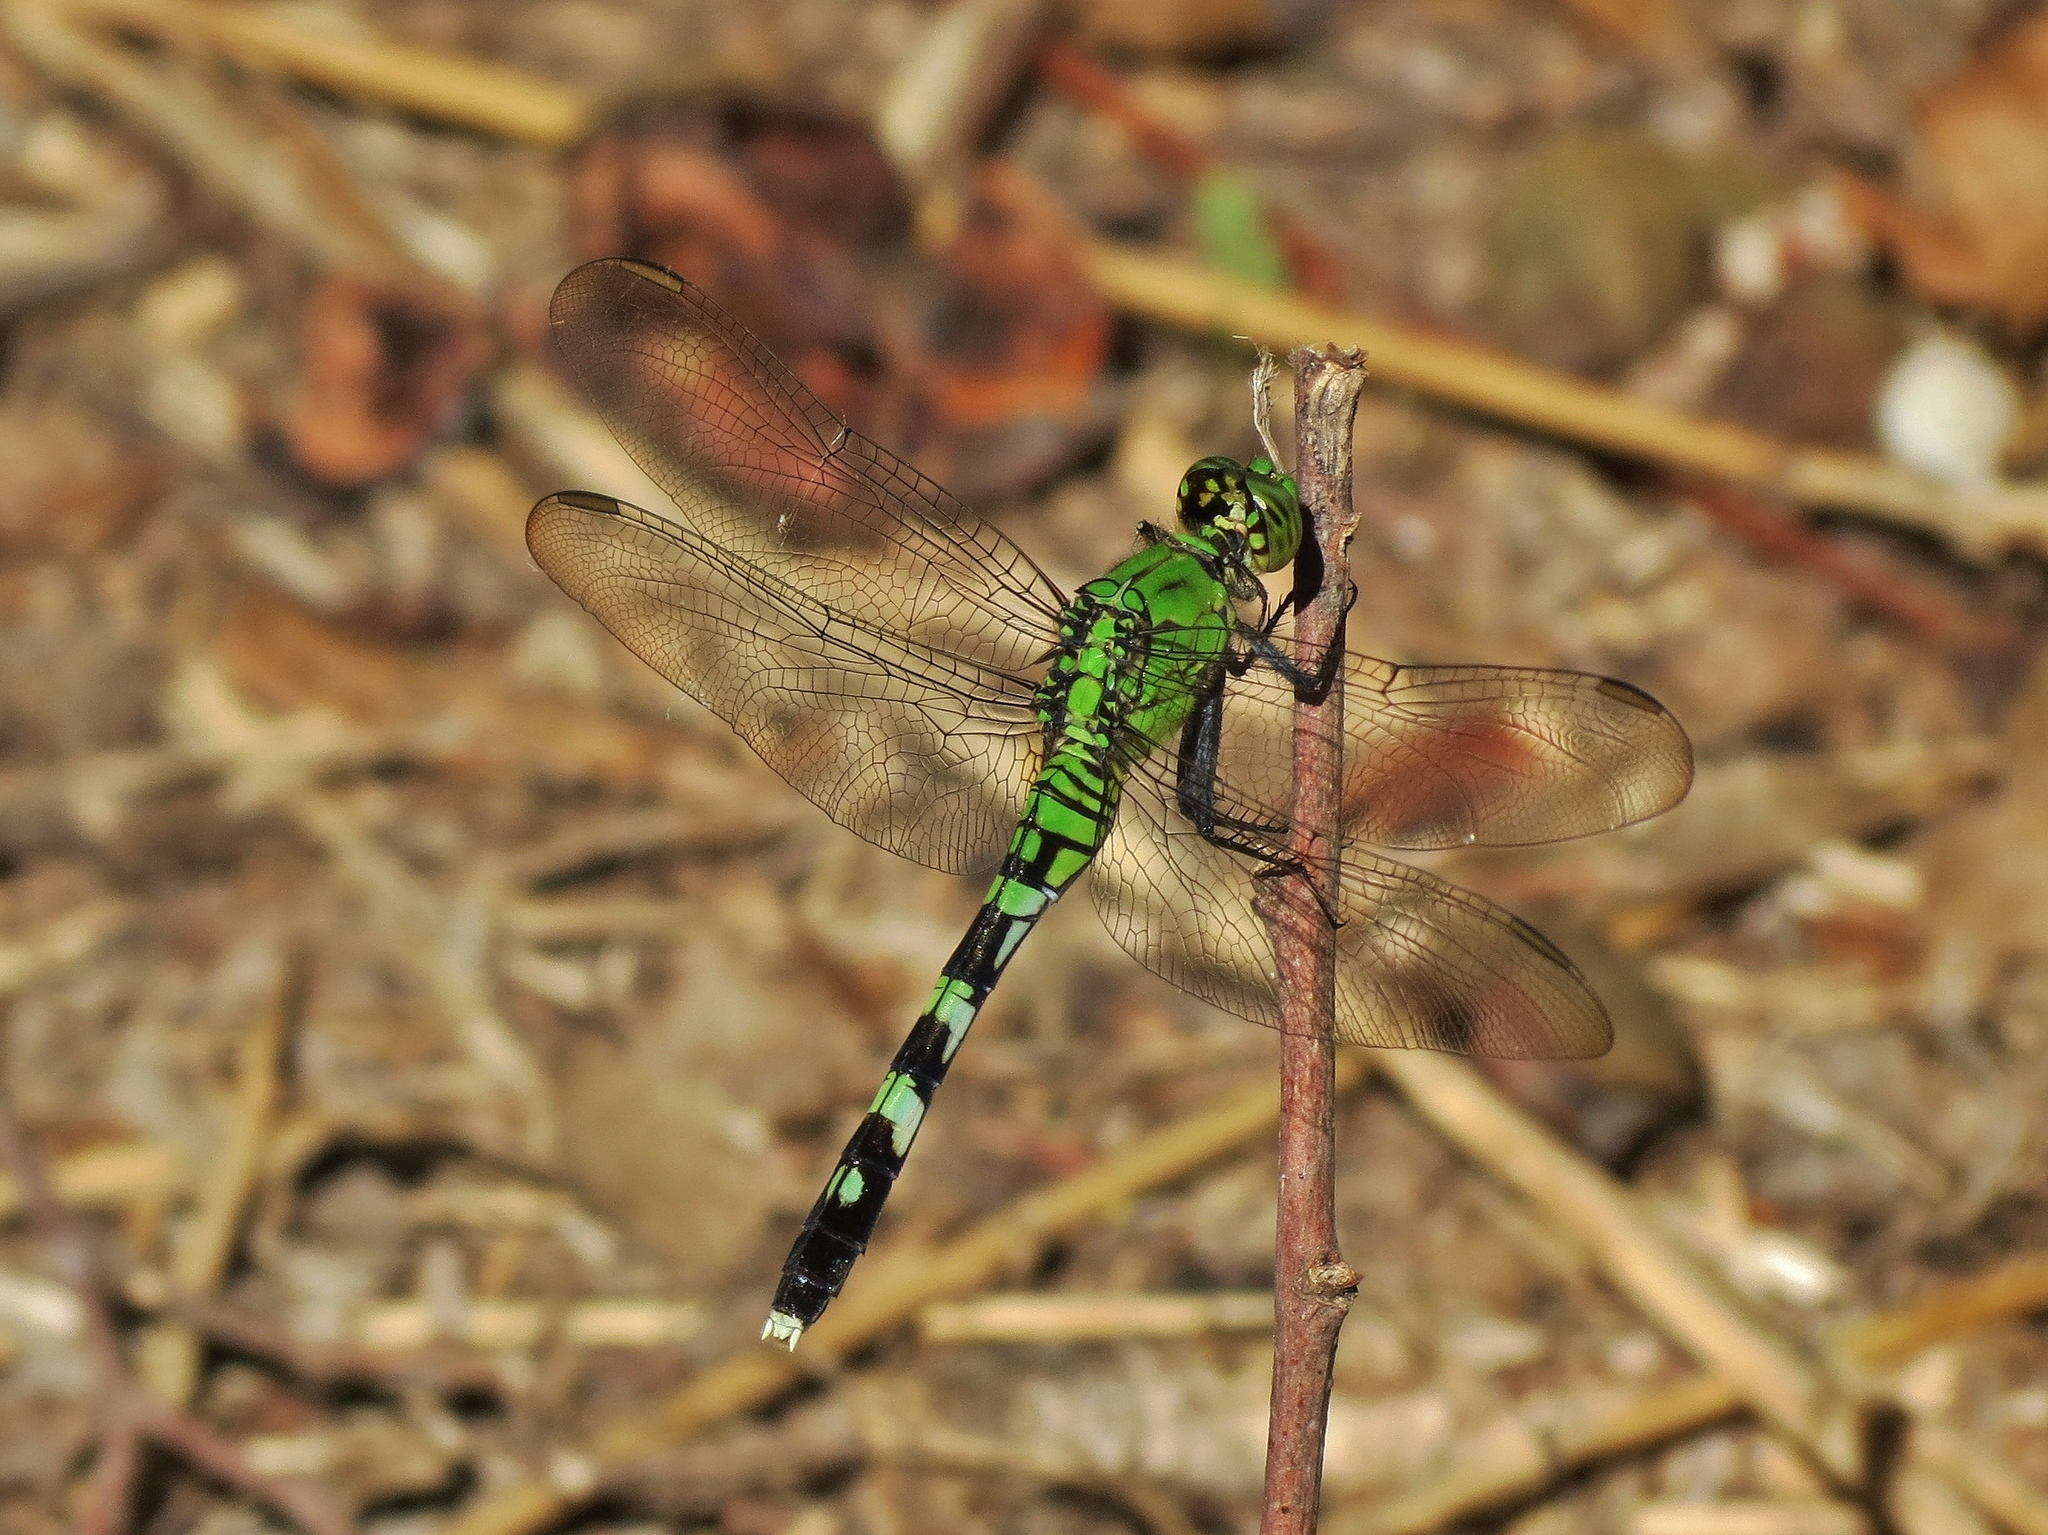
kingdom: Animalia
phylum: Arthropoda
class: Insecta
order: Odonata
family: Libellulidae
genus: Erythemis
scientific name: Erythemis simplicicollis
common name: Eastern pondhawk
